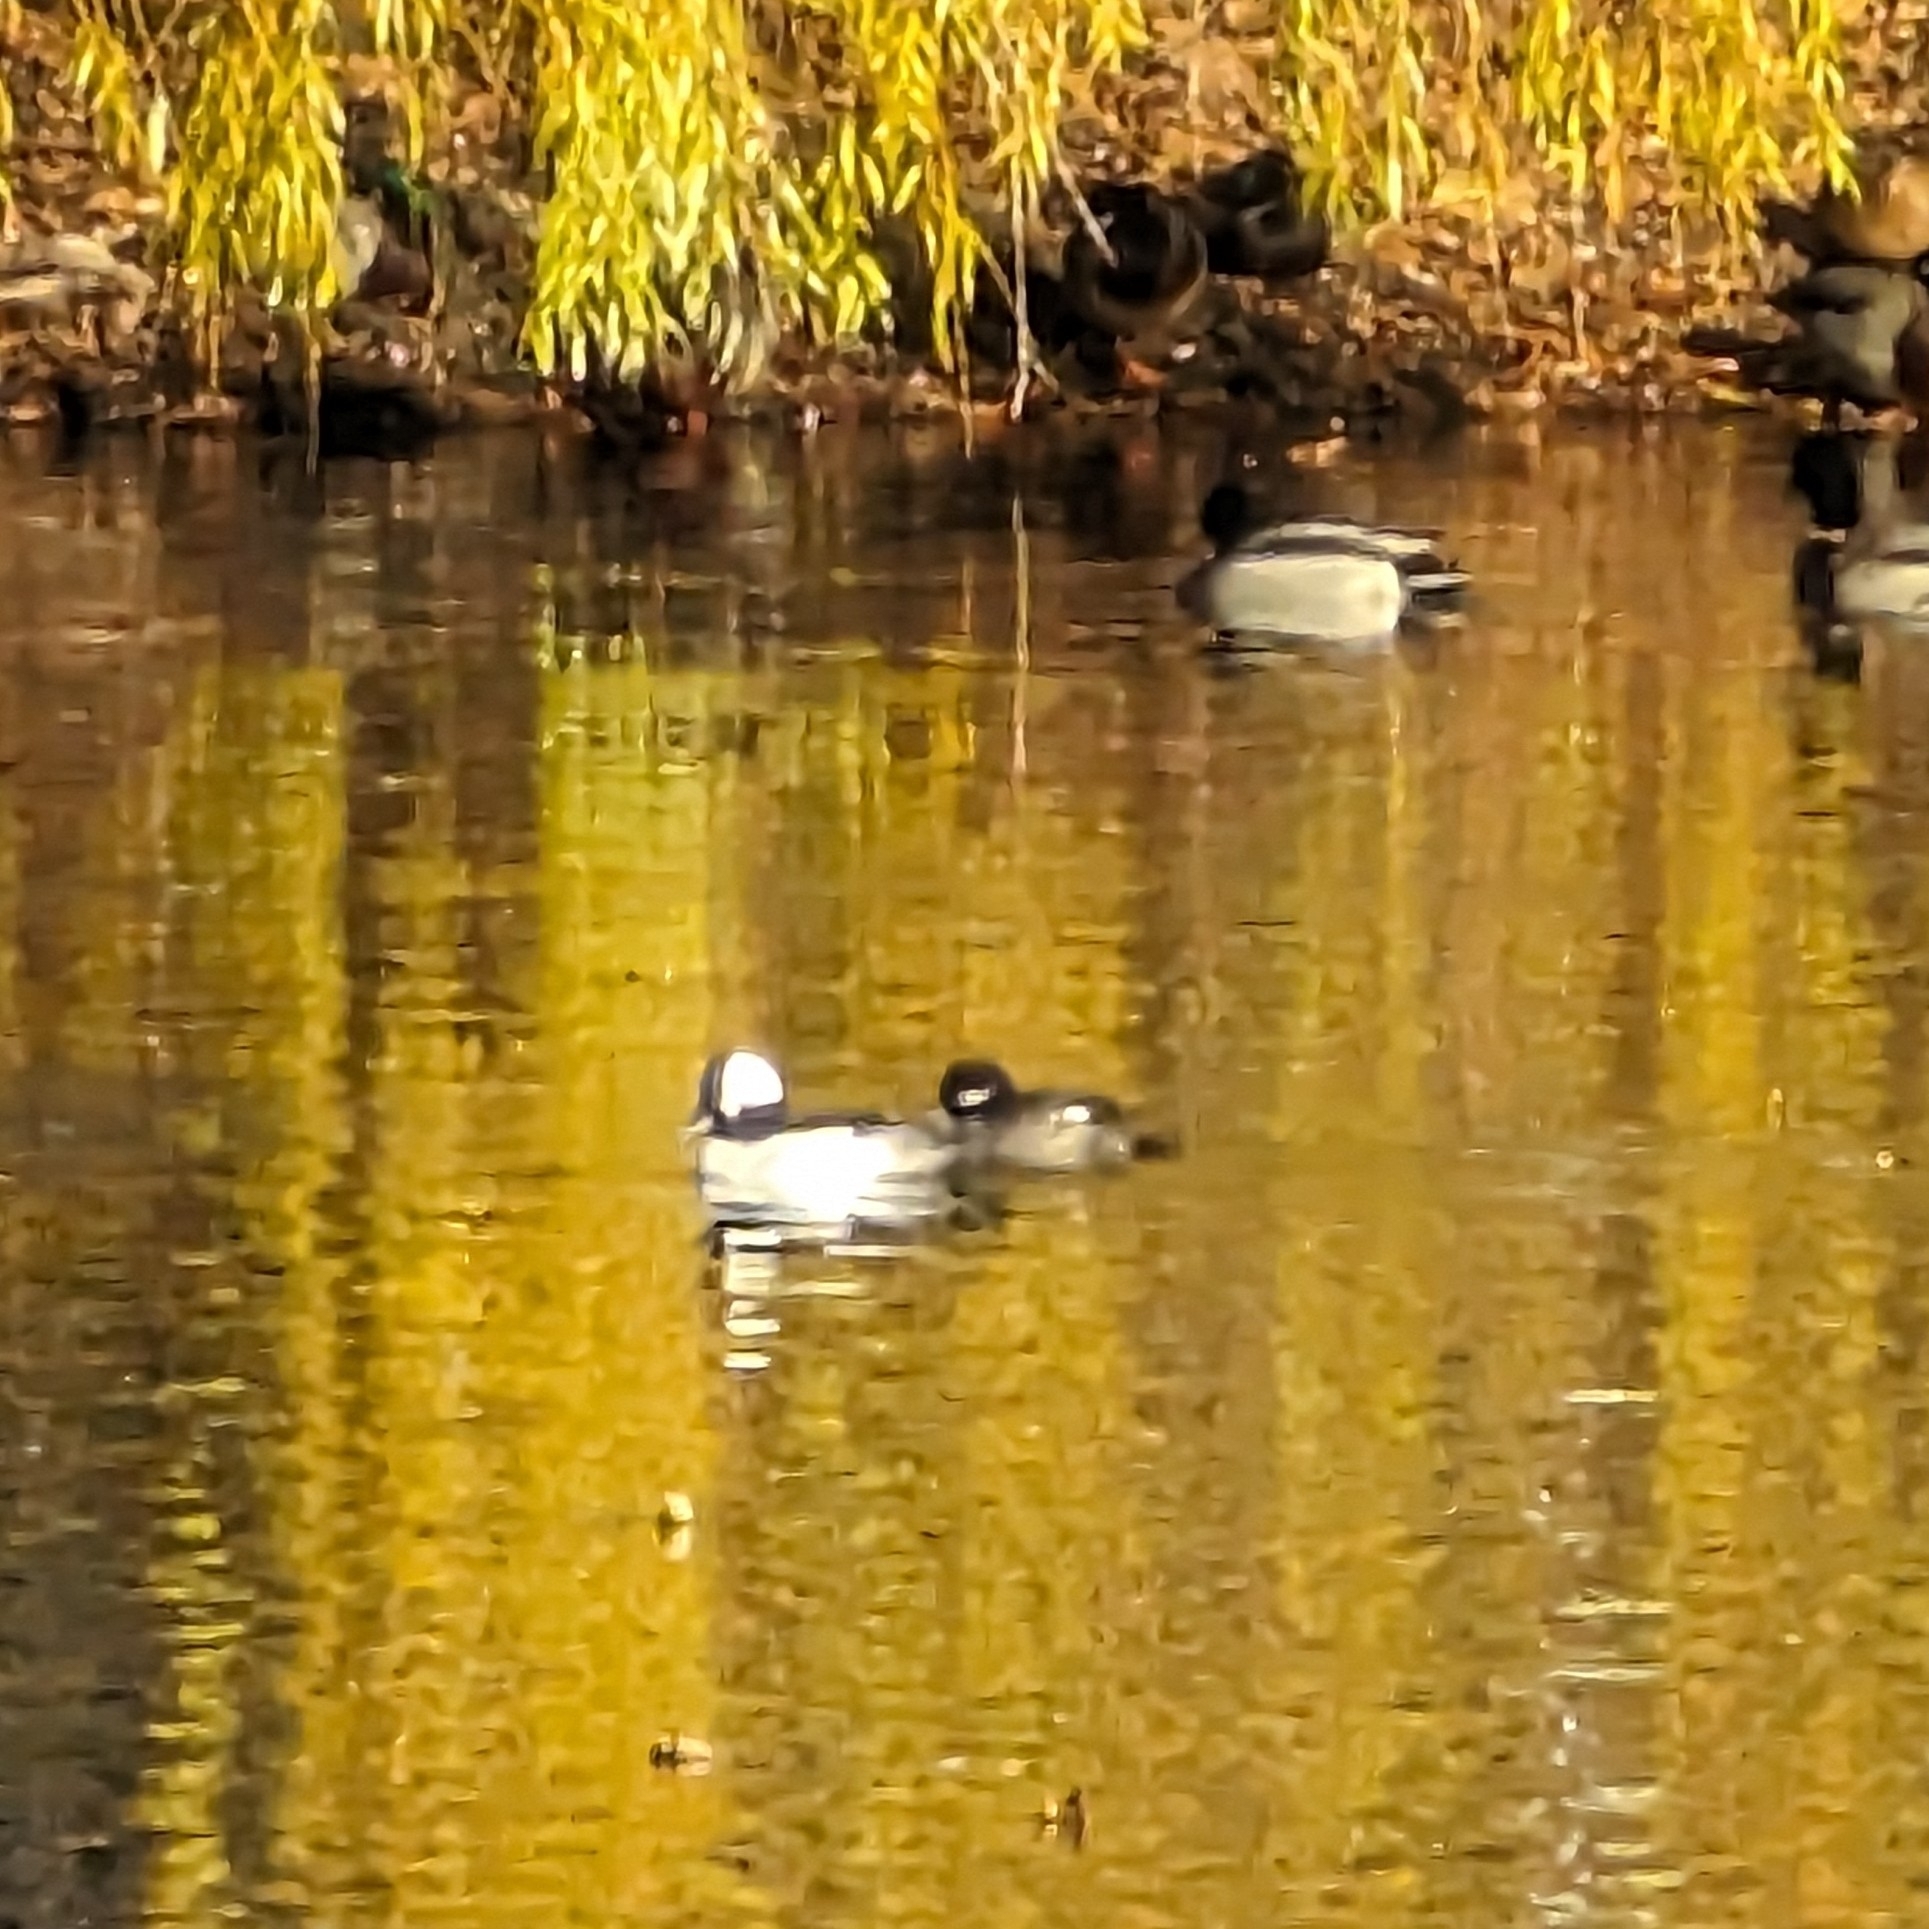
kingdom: Animalia
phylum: Chordata
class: Aves
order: Anseriformes
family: Anatidae
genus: Bucephala
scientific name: Bucephala albeola
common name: Bufflehead
